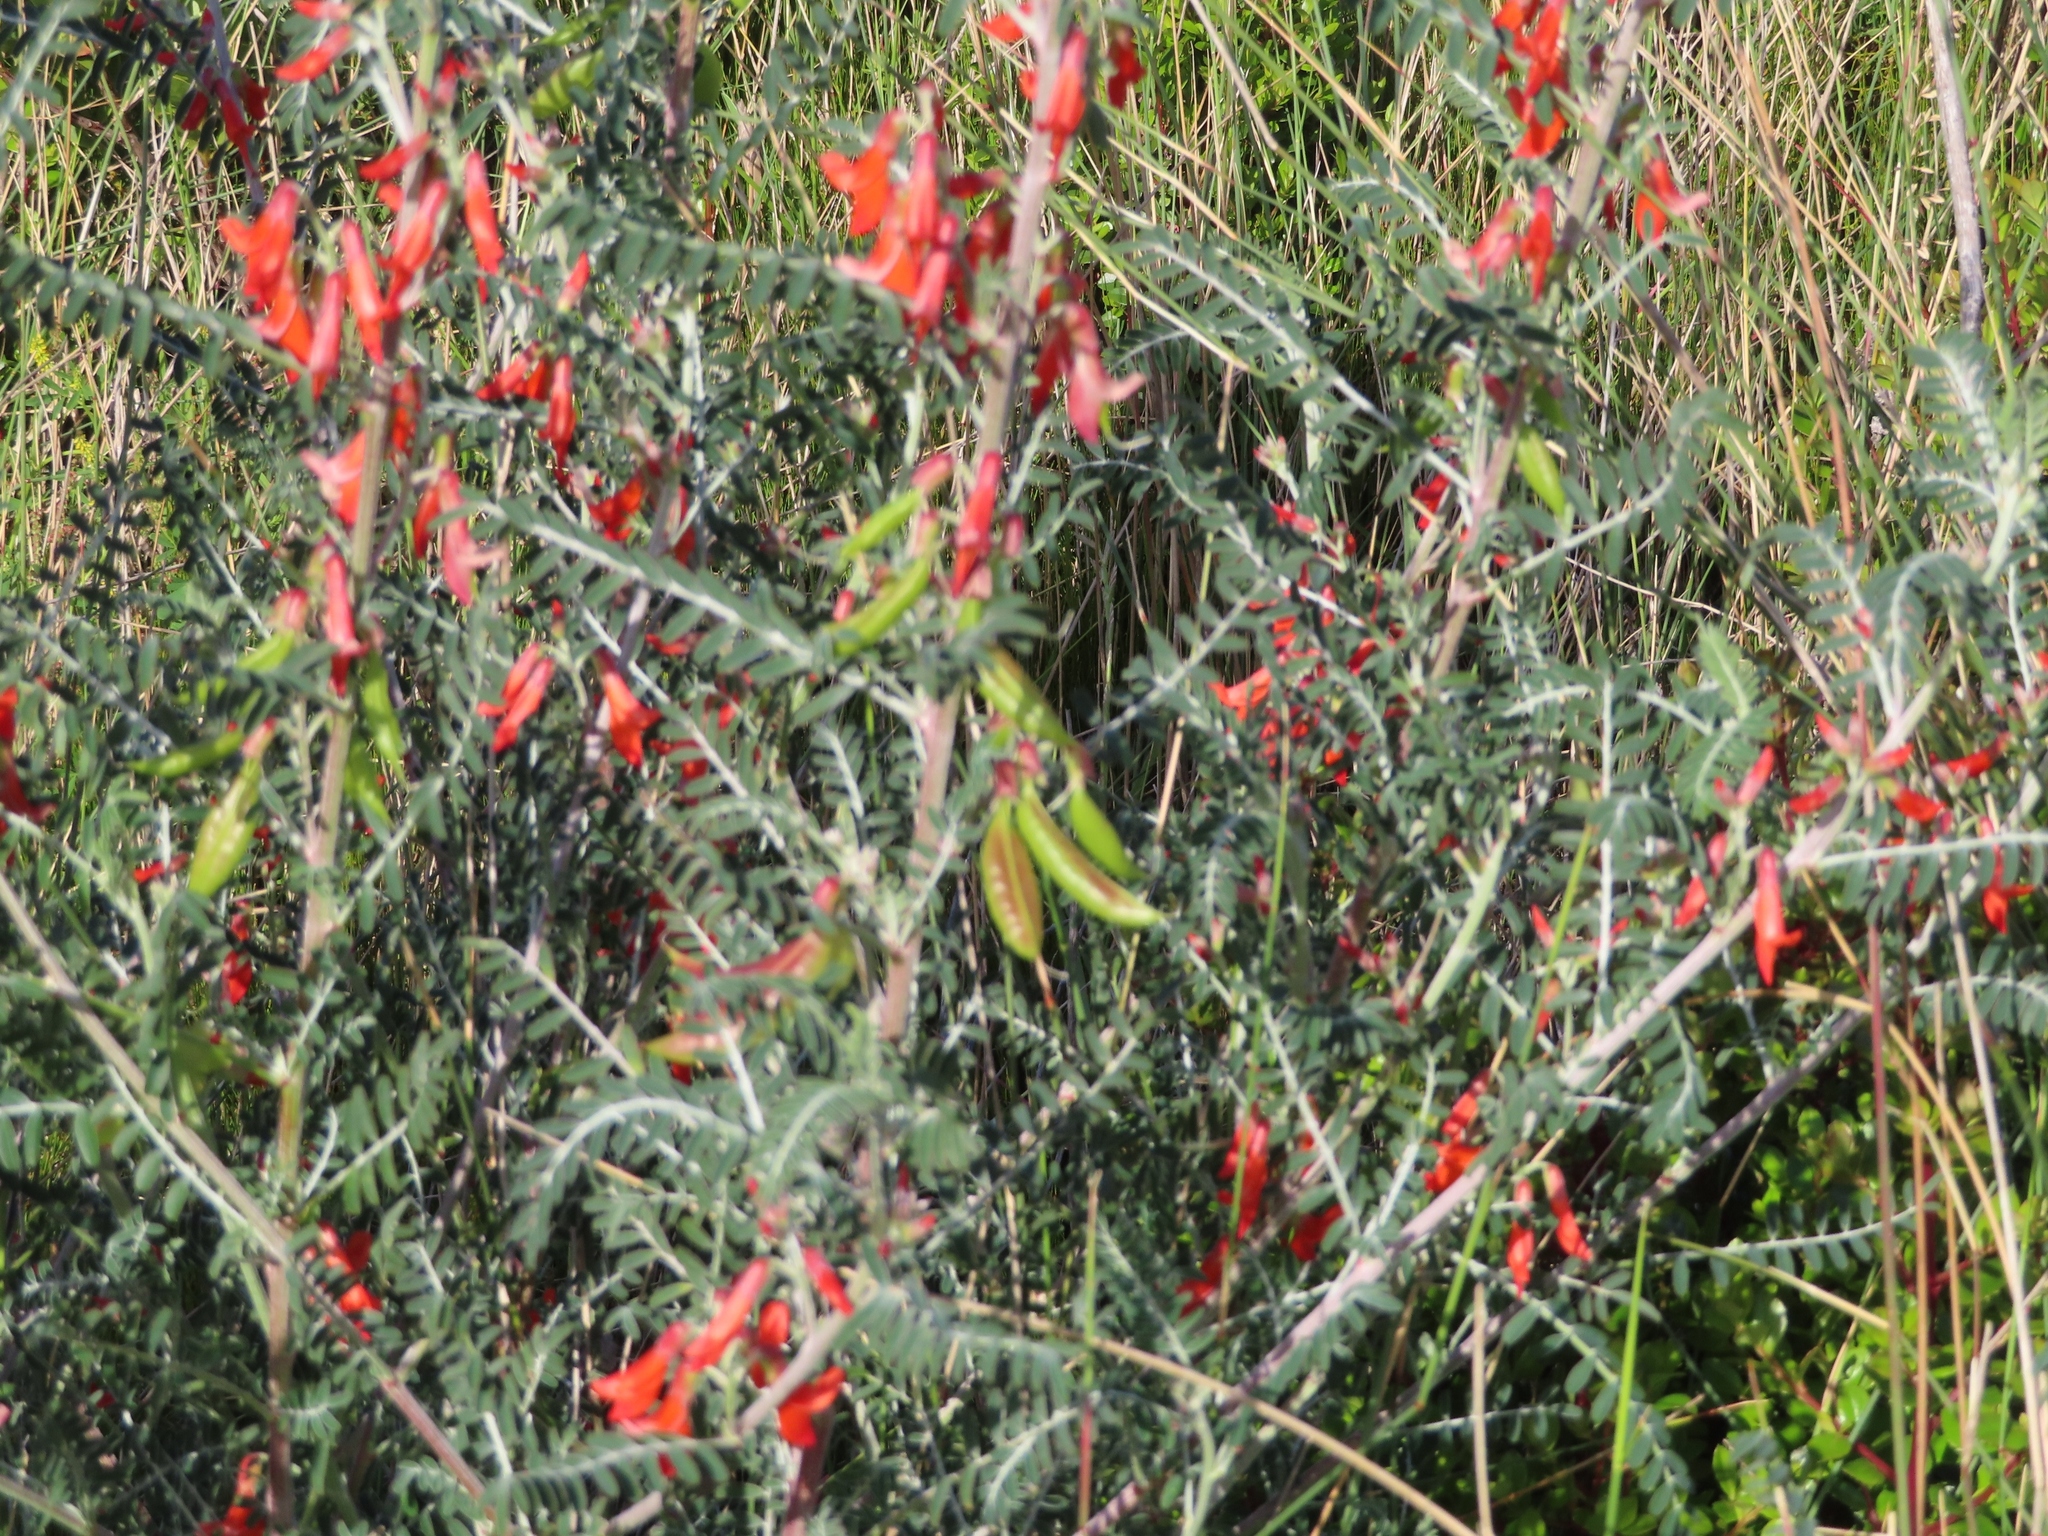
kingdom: Plantae
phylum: Tracheophyta
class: Magnoliopsida
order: Fabales
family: Fabaceae
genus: Lessertia
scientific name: Lessertia frutescens
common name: Balloon-pea
